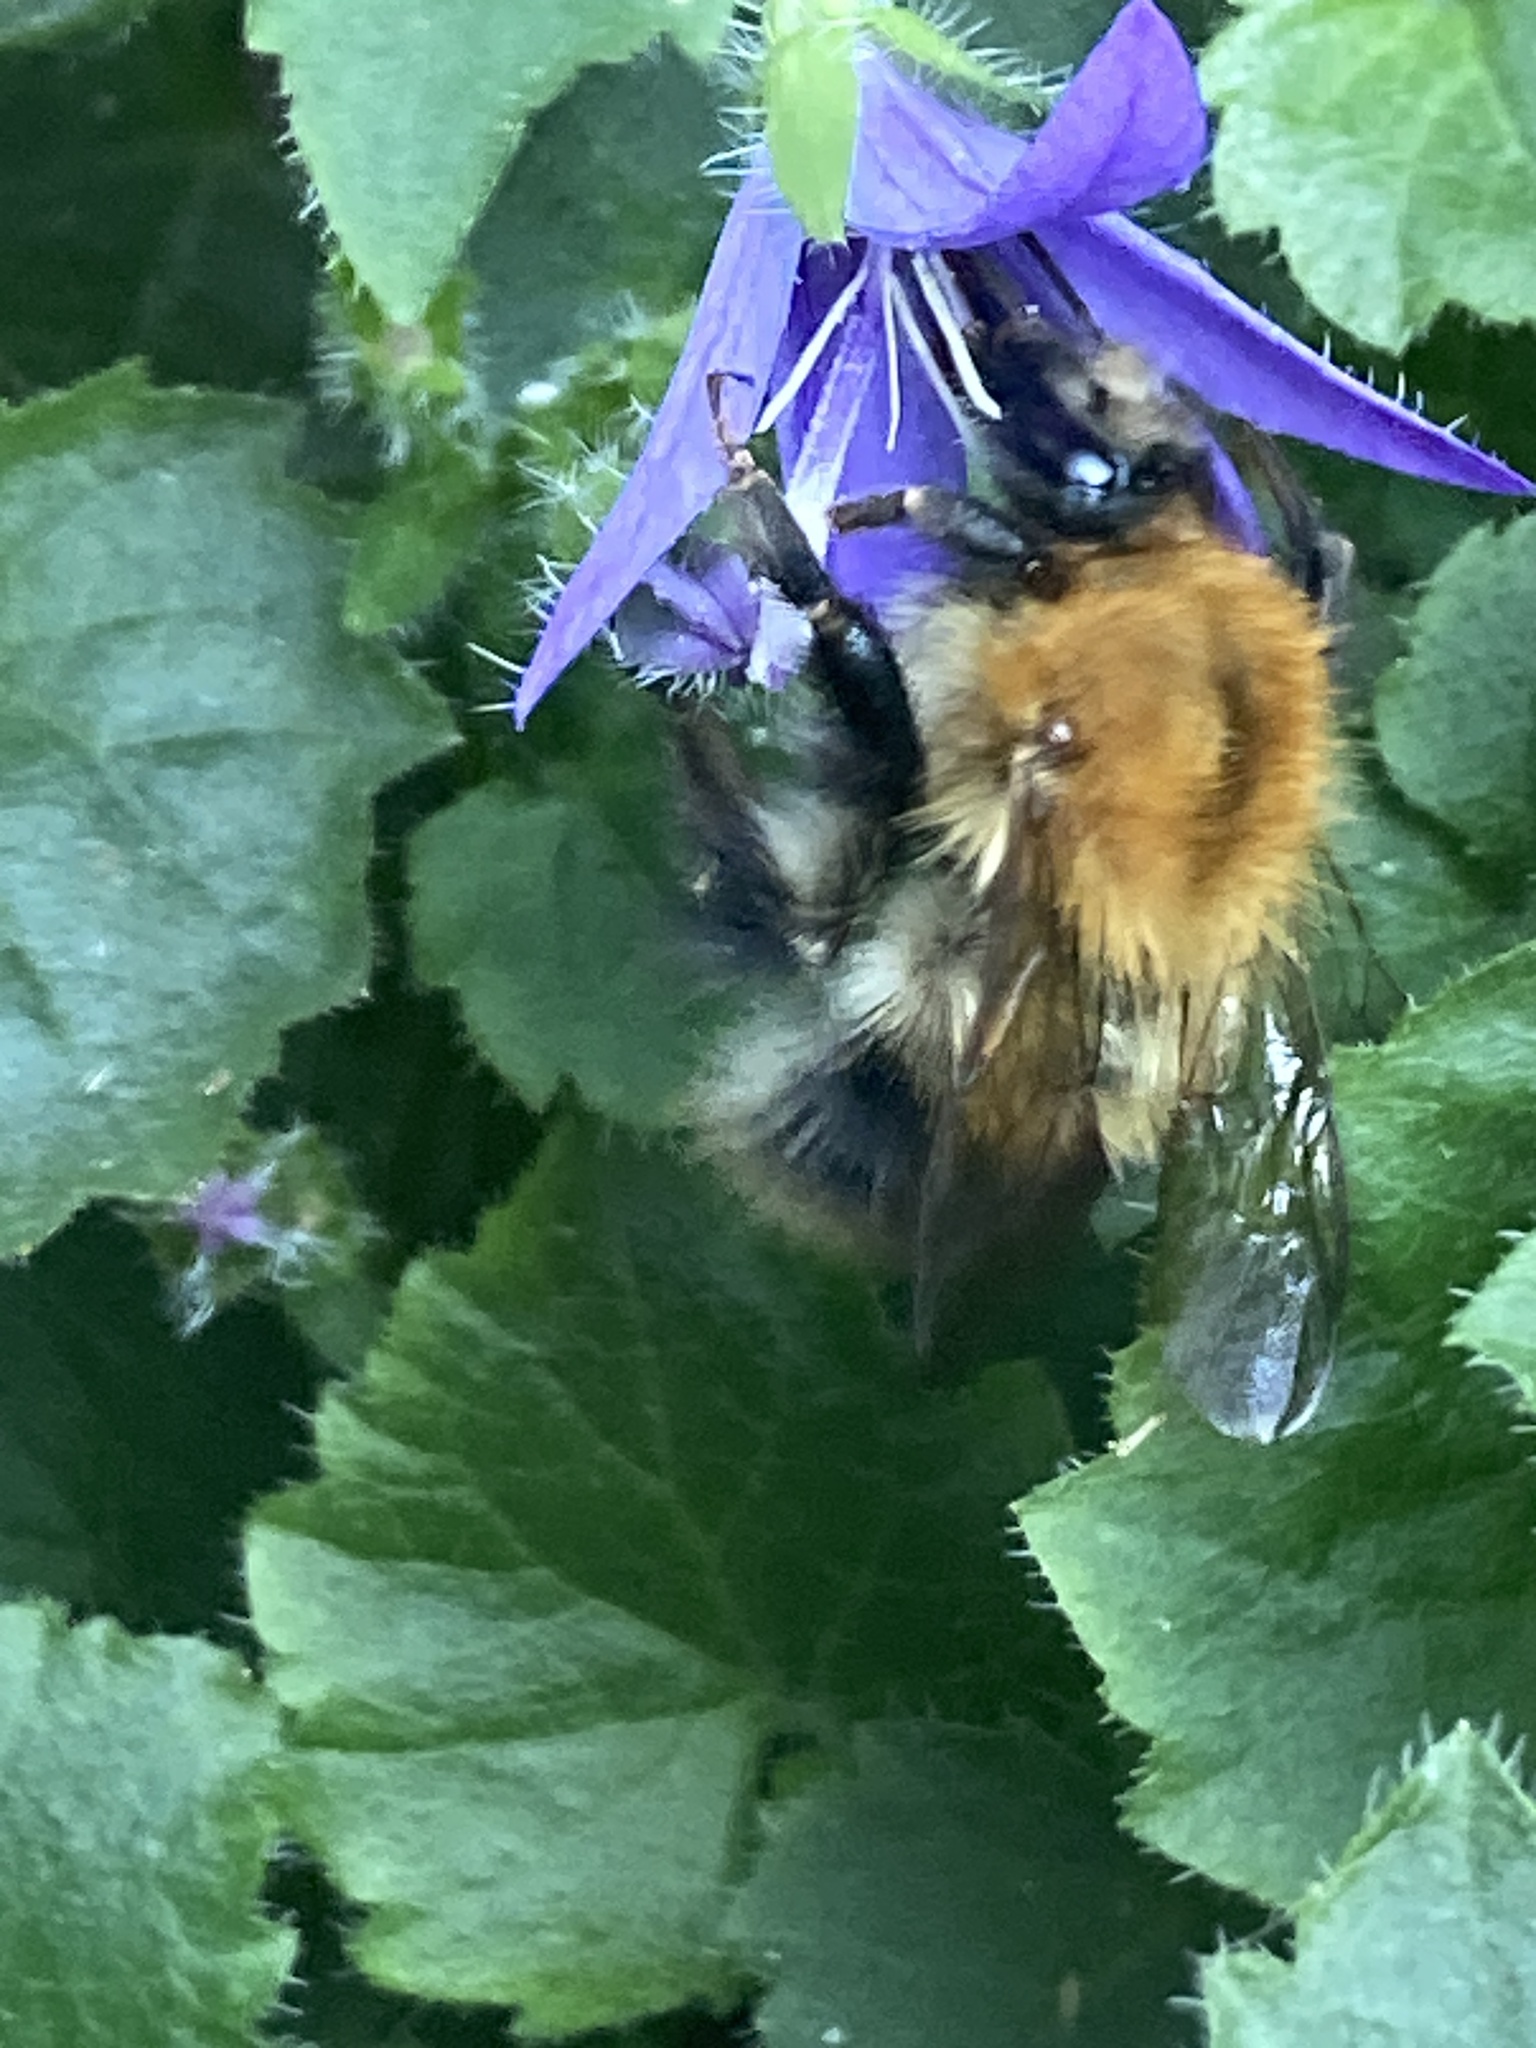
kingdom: Animalia
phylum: Arthropoda
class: Insecta
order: Hymenoptera
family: Apidae
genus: Bombus
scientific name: Bombus pascuorum
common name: Common carder bee
